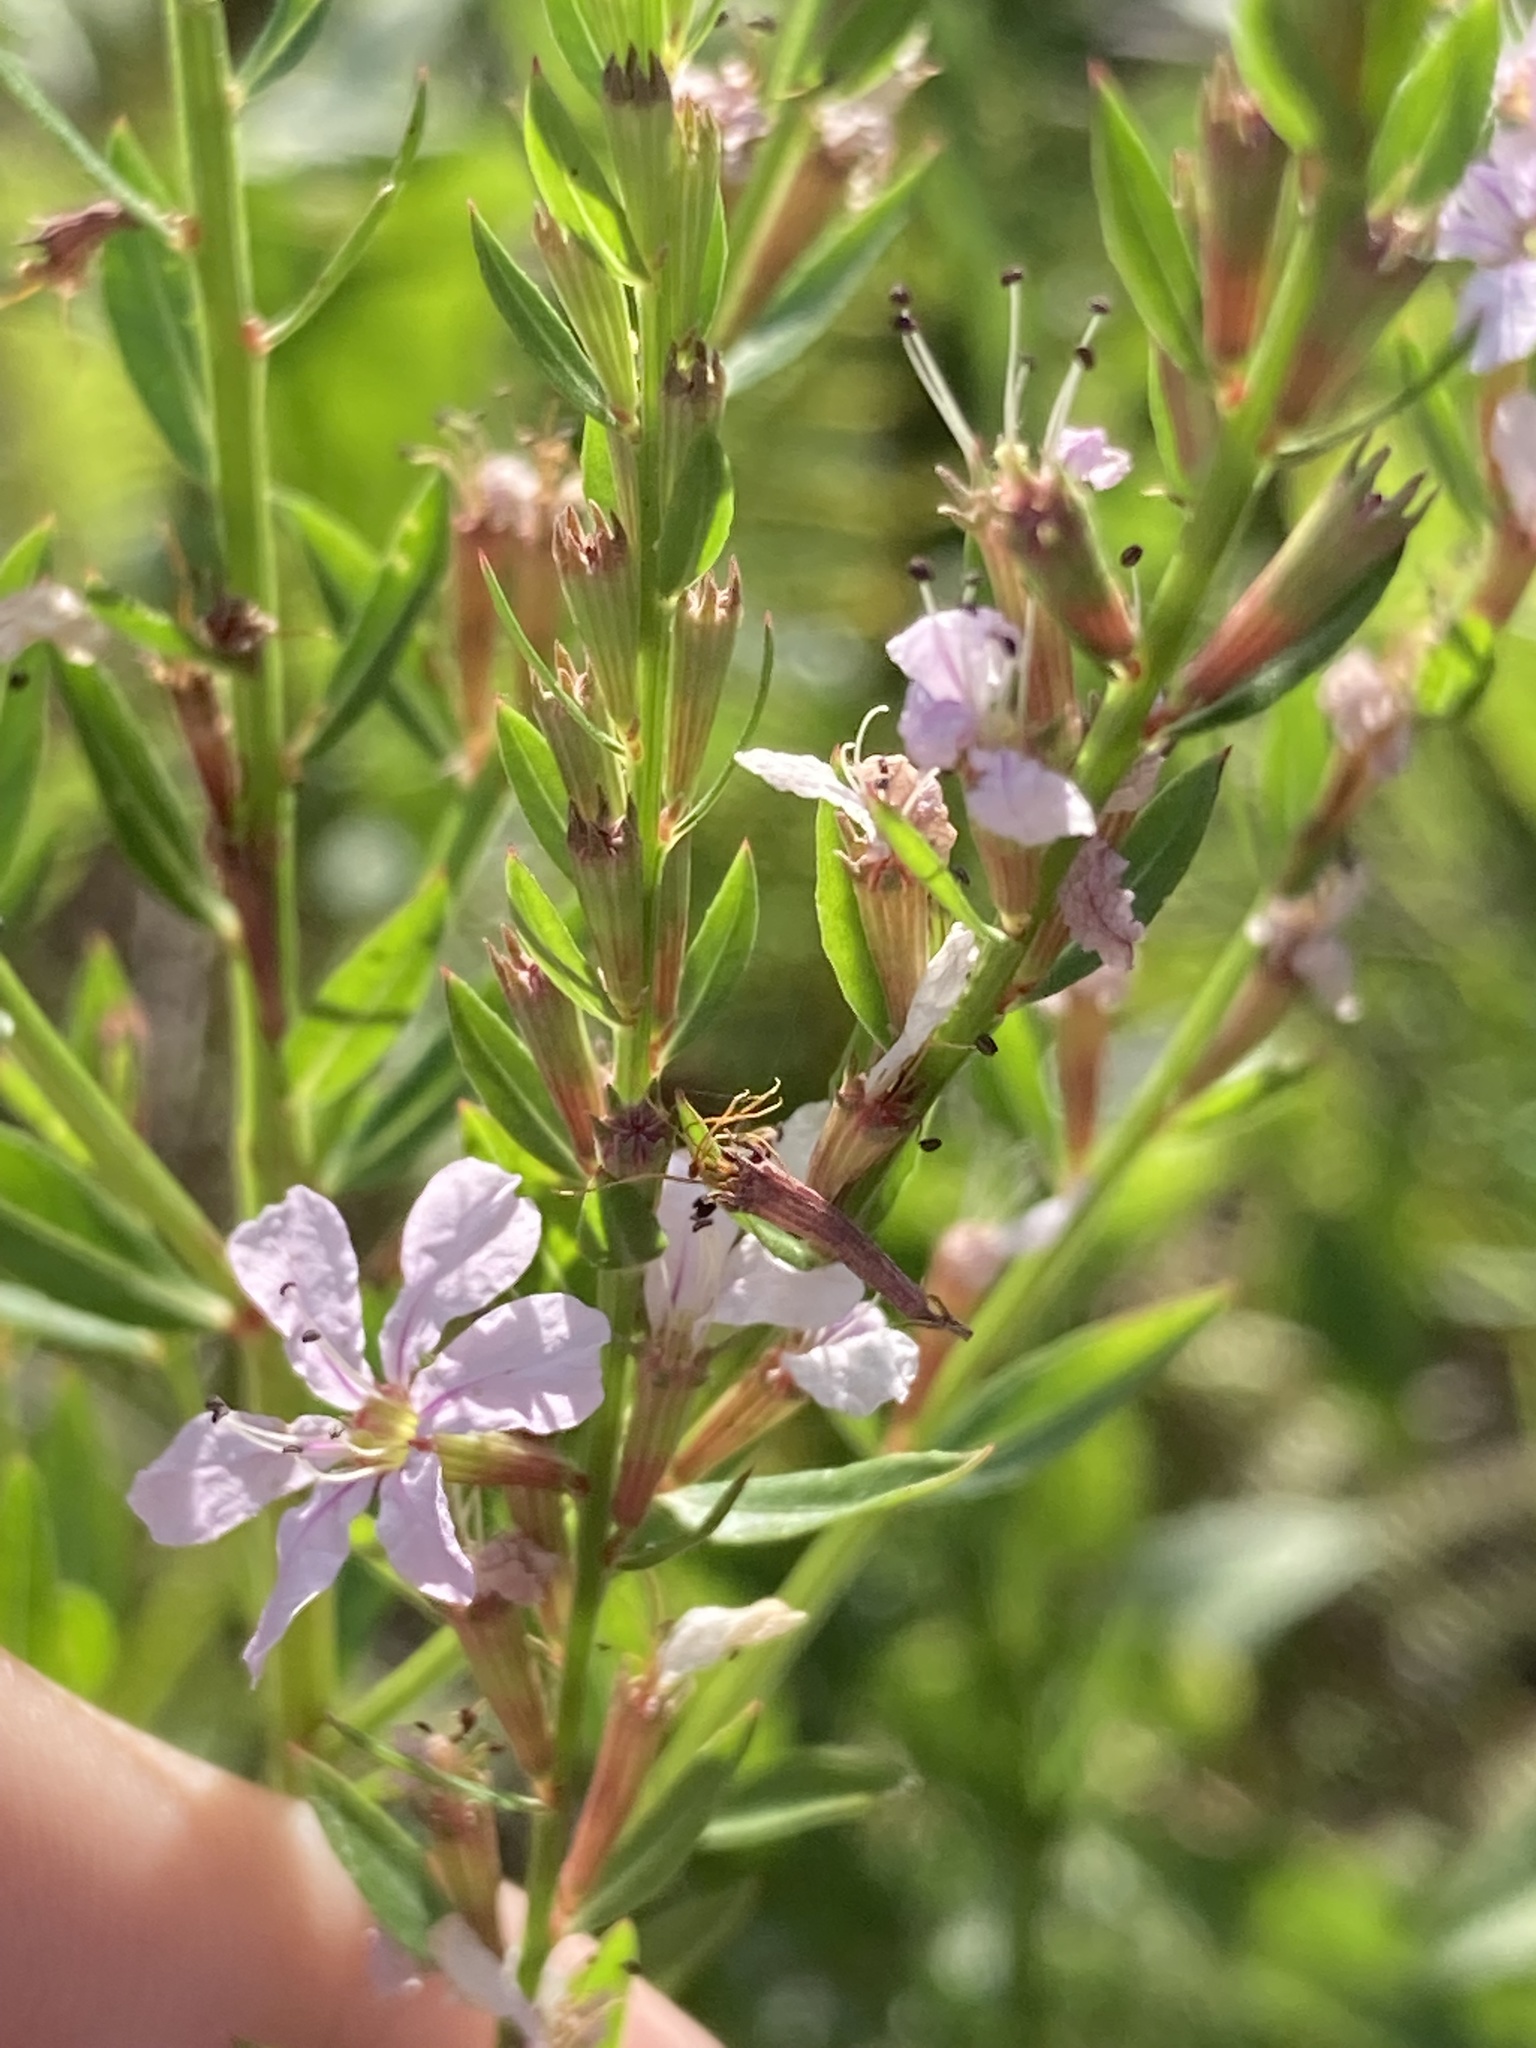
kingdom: Plantae
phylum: Tracheophyta
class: Magnoliopsida
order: Myrtales
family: Lythraceae
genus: Lythrum
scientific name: Lythrum alatum
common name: Winged loosestrife
